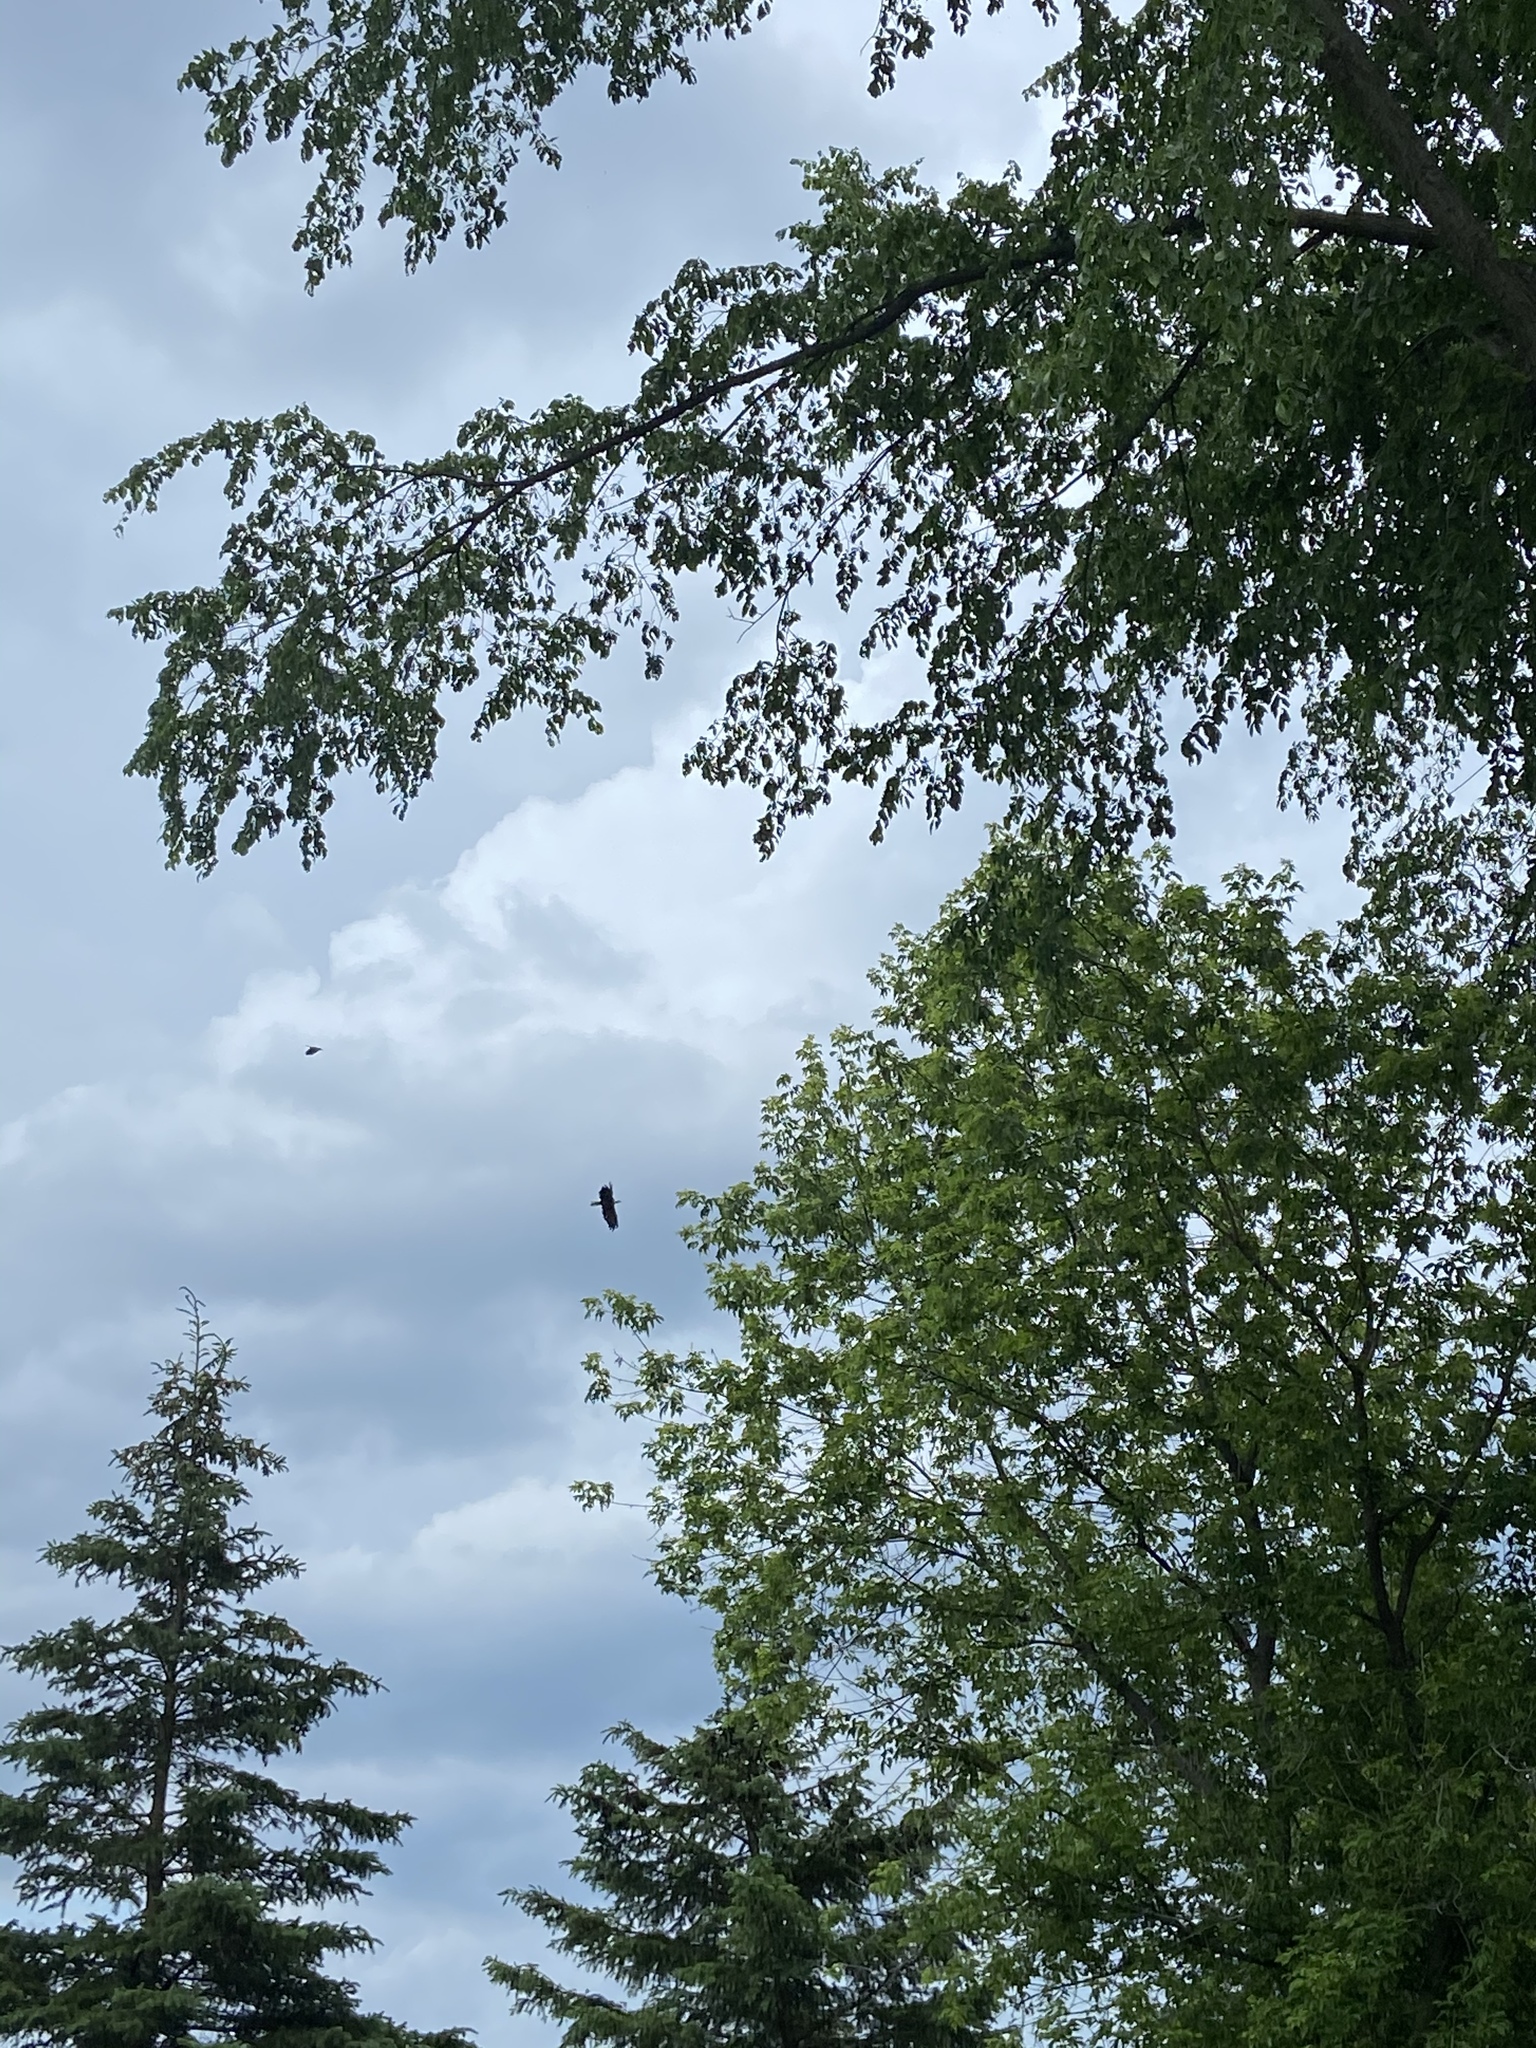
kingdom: Animalia
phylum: Chordata
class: Aves
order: Accipitriformes
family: Accipitridae
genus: Haliaeetus
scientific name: Haliaeetus leucocephalus
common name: Bald eagle
